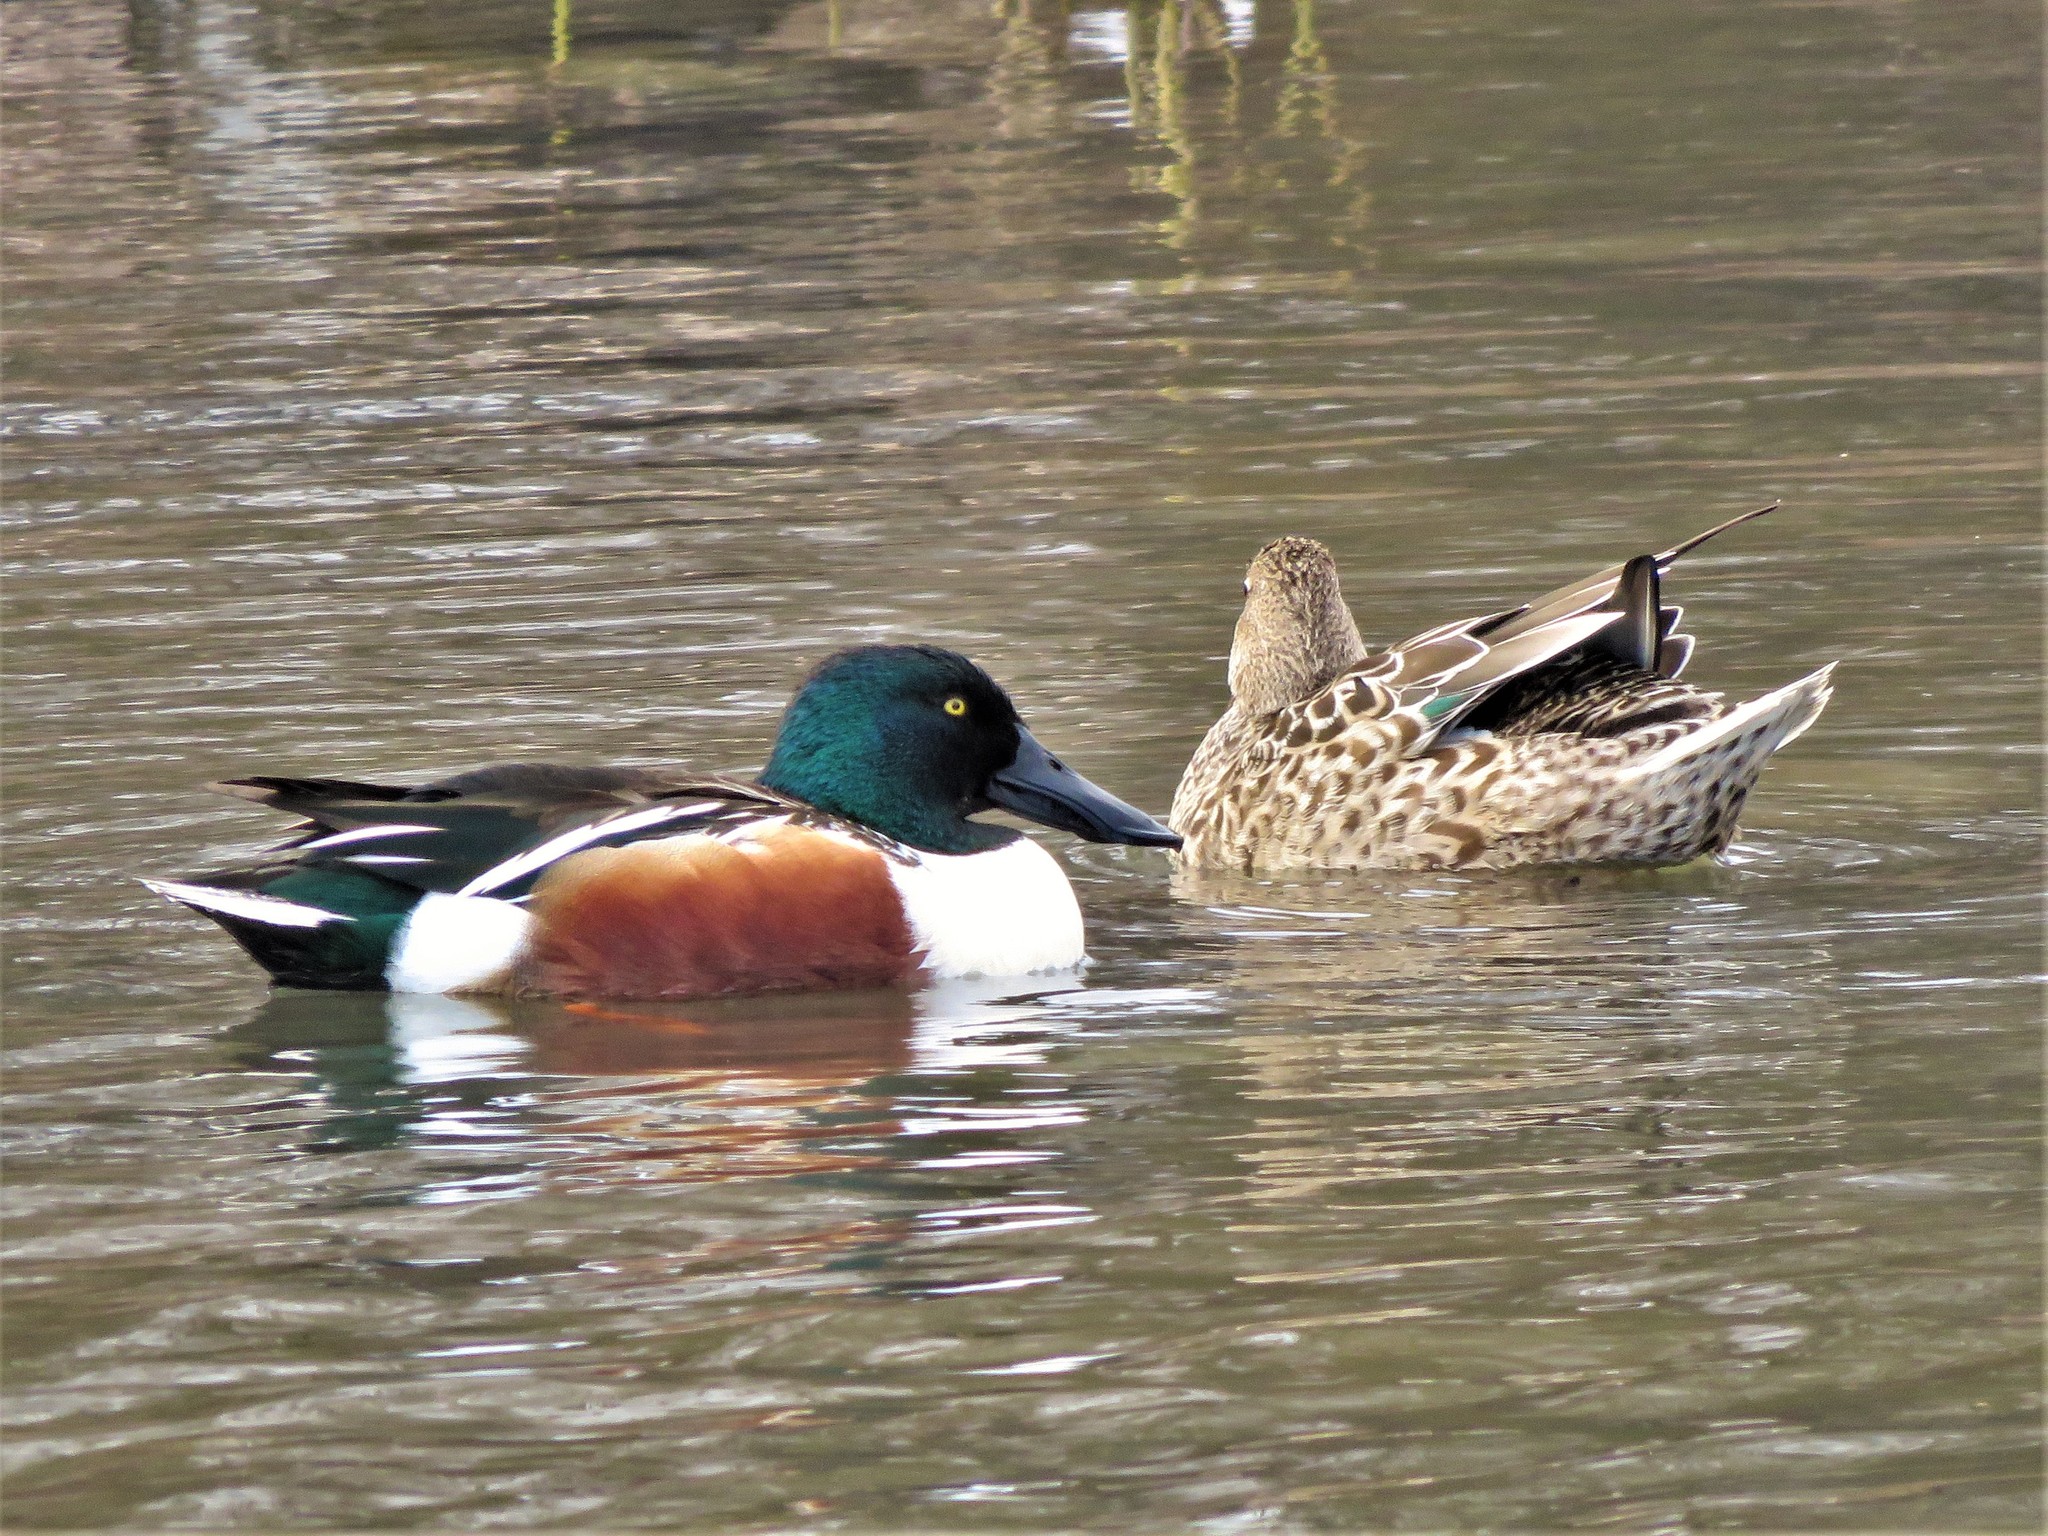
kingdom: Animalia
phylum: Chordata
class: Aves
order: Anseriformes
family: Anatidae
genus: Spatula
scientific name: Spatula clypeata
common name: Northern shoveler
